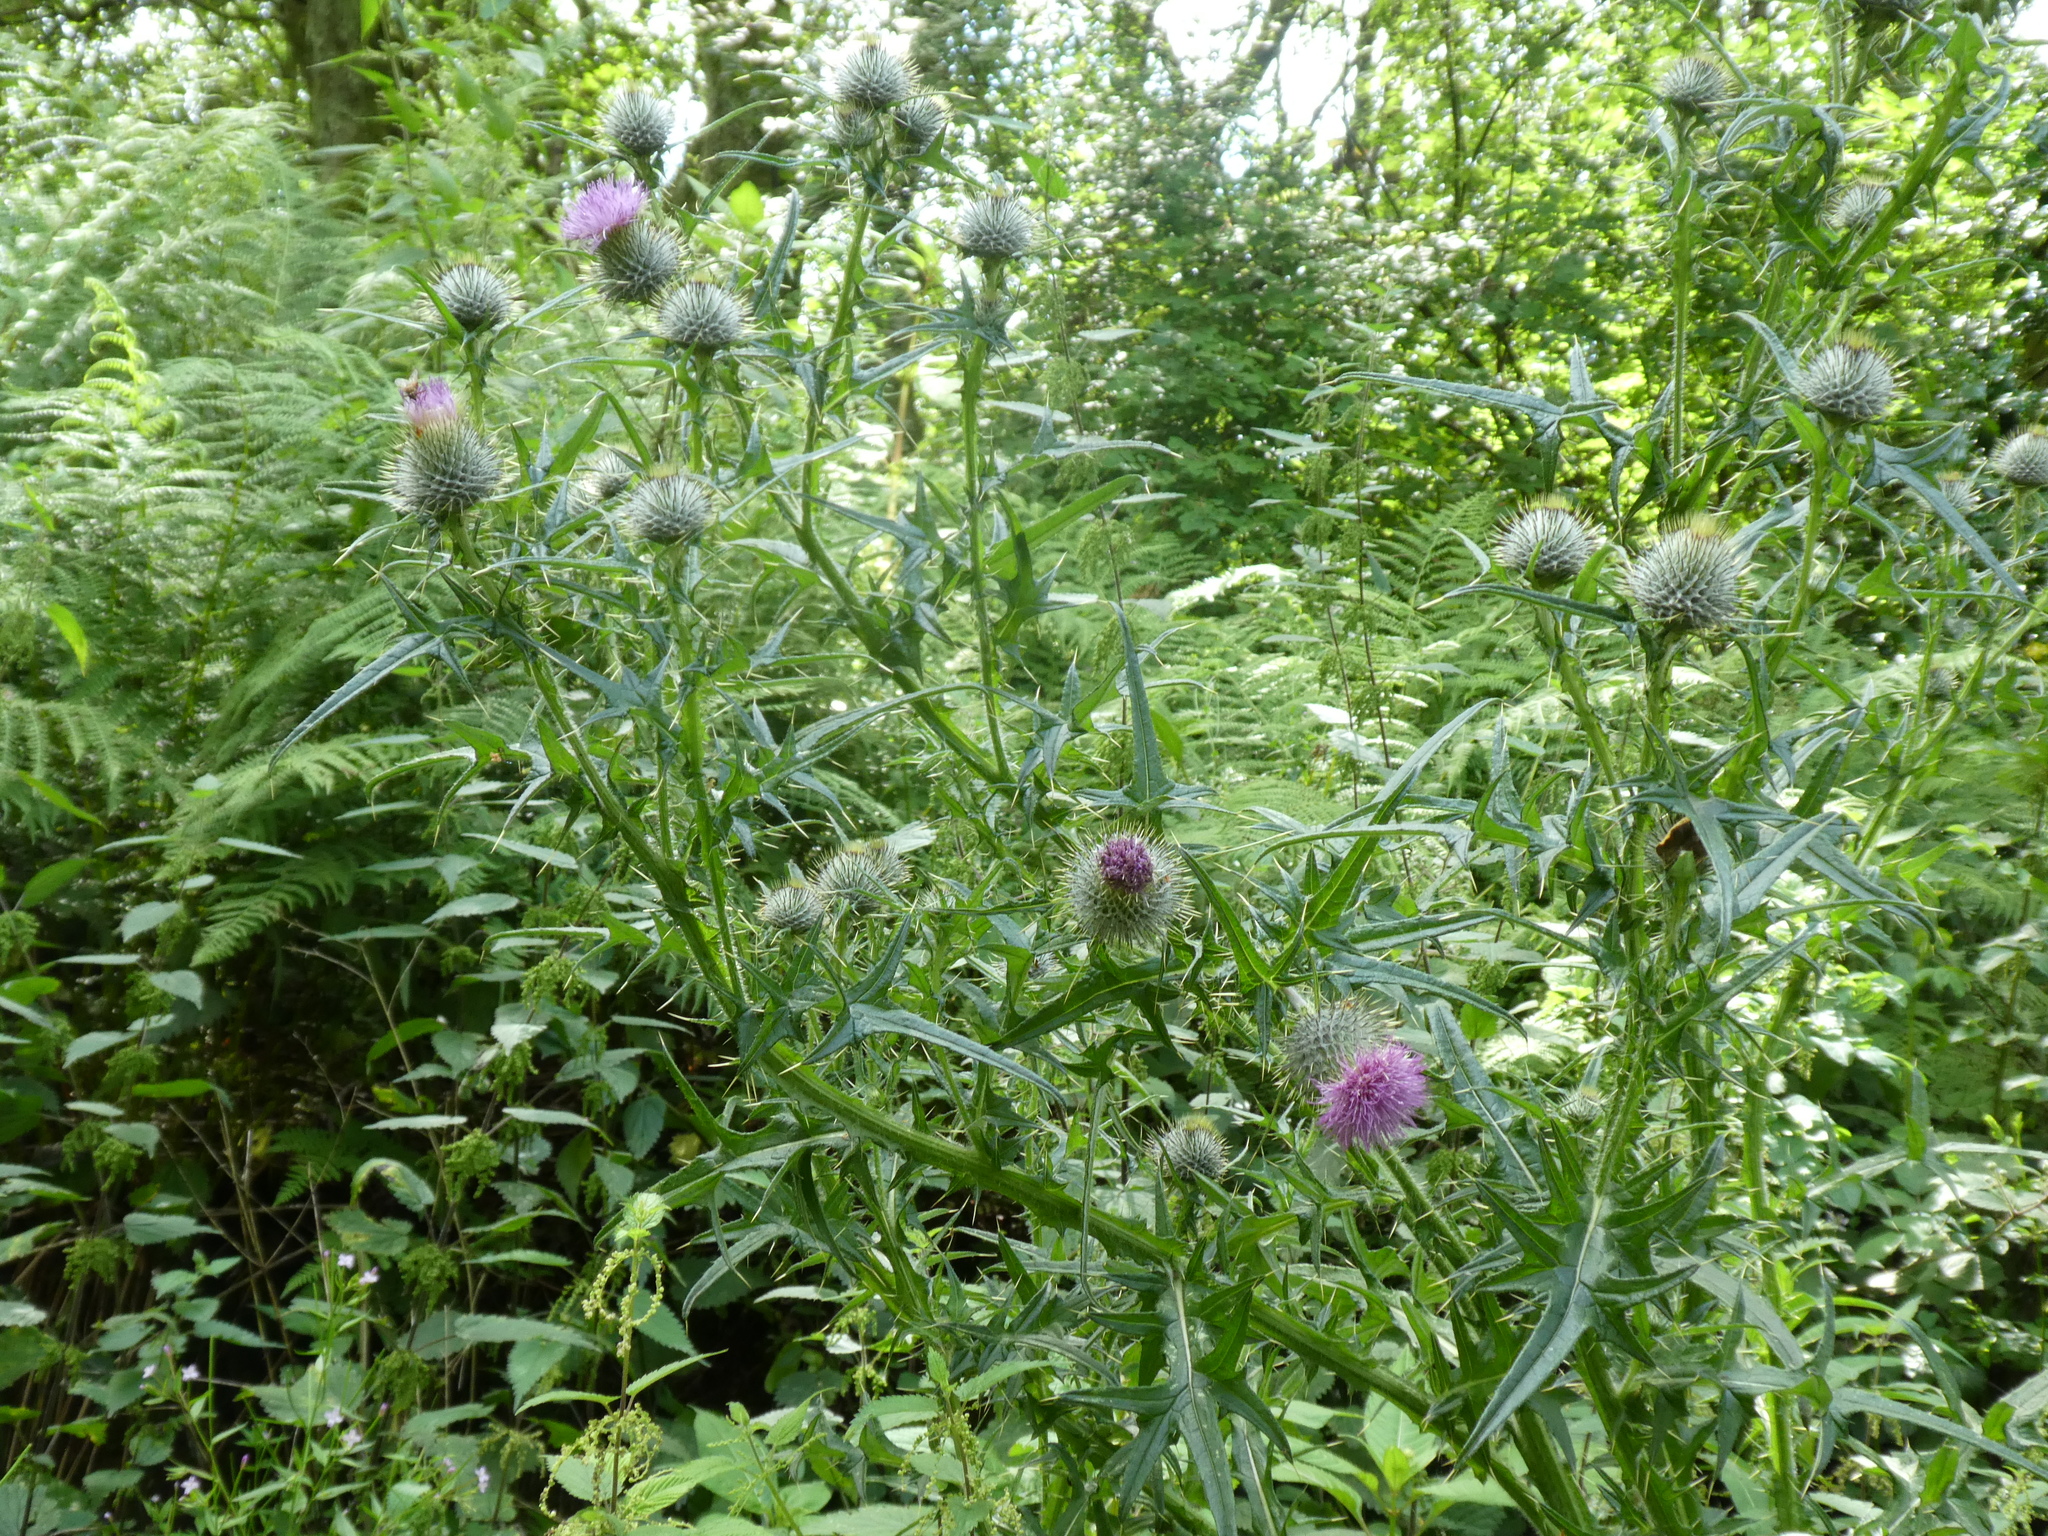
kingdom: Plantae
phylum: Tracheophyta
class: Magnoliopsida
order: Asterales
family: Asteraceae
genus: Cirsium
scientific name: Cirsium vulgare
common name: Bull thistle
